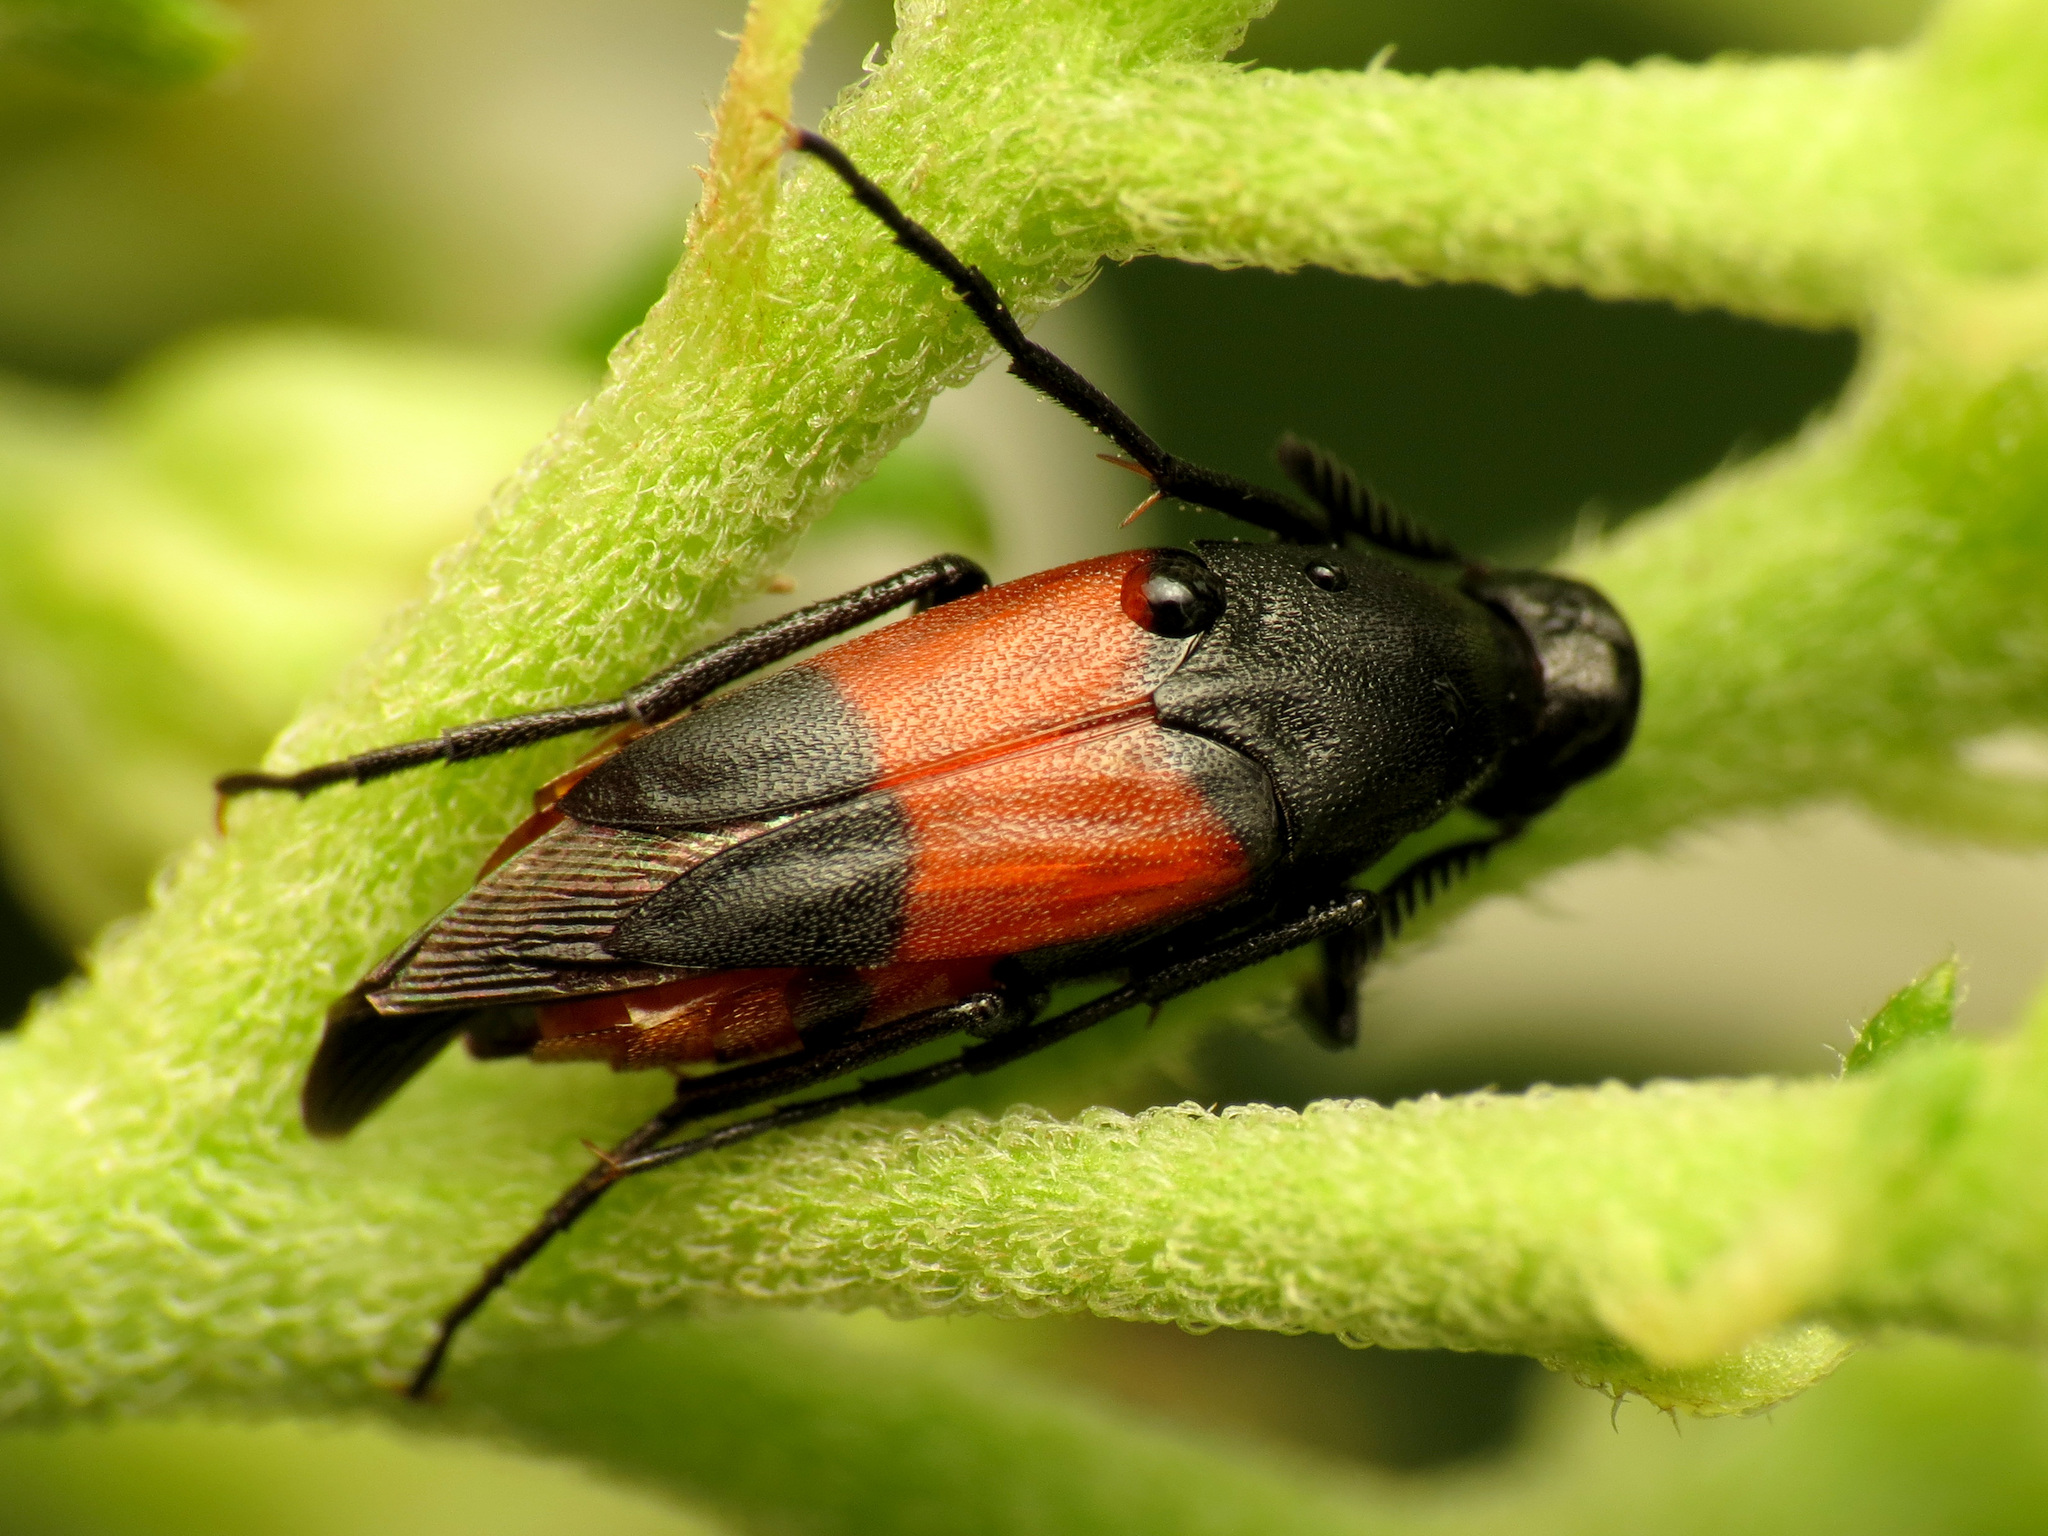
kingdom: Animalia
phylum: Arthropoda
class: Insecta
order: Coleoptera
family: Ripiphoridae
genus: Macrosiagon
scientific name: Macrosiagon cruentum
